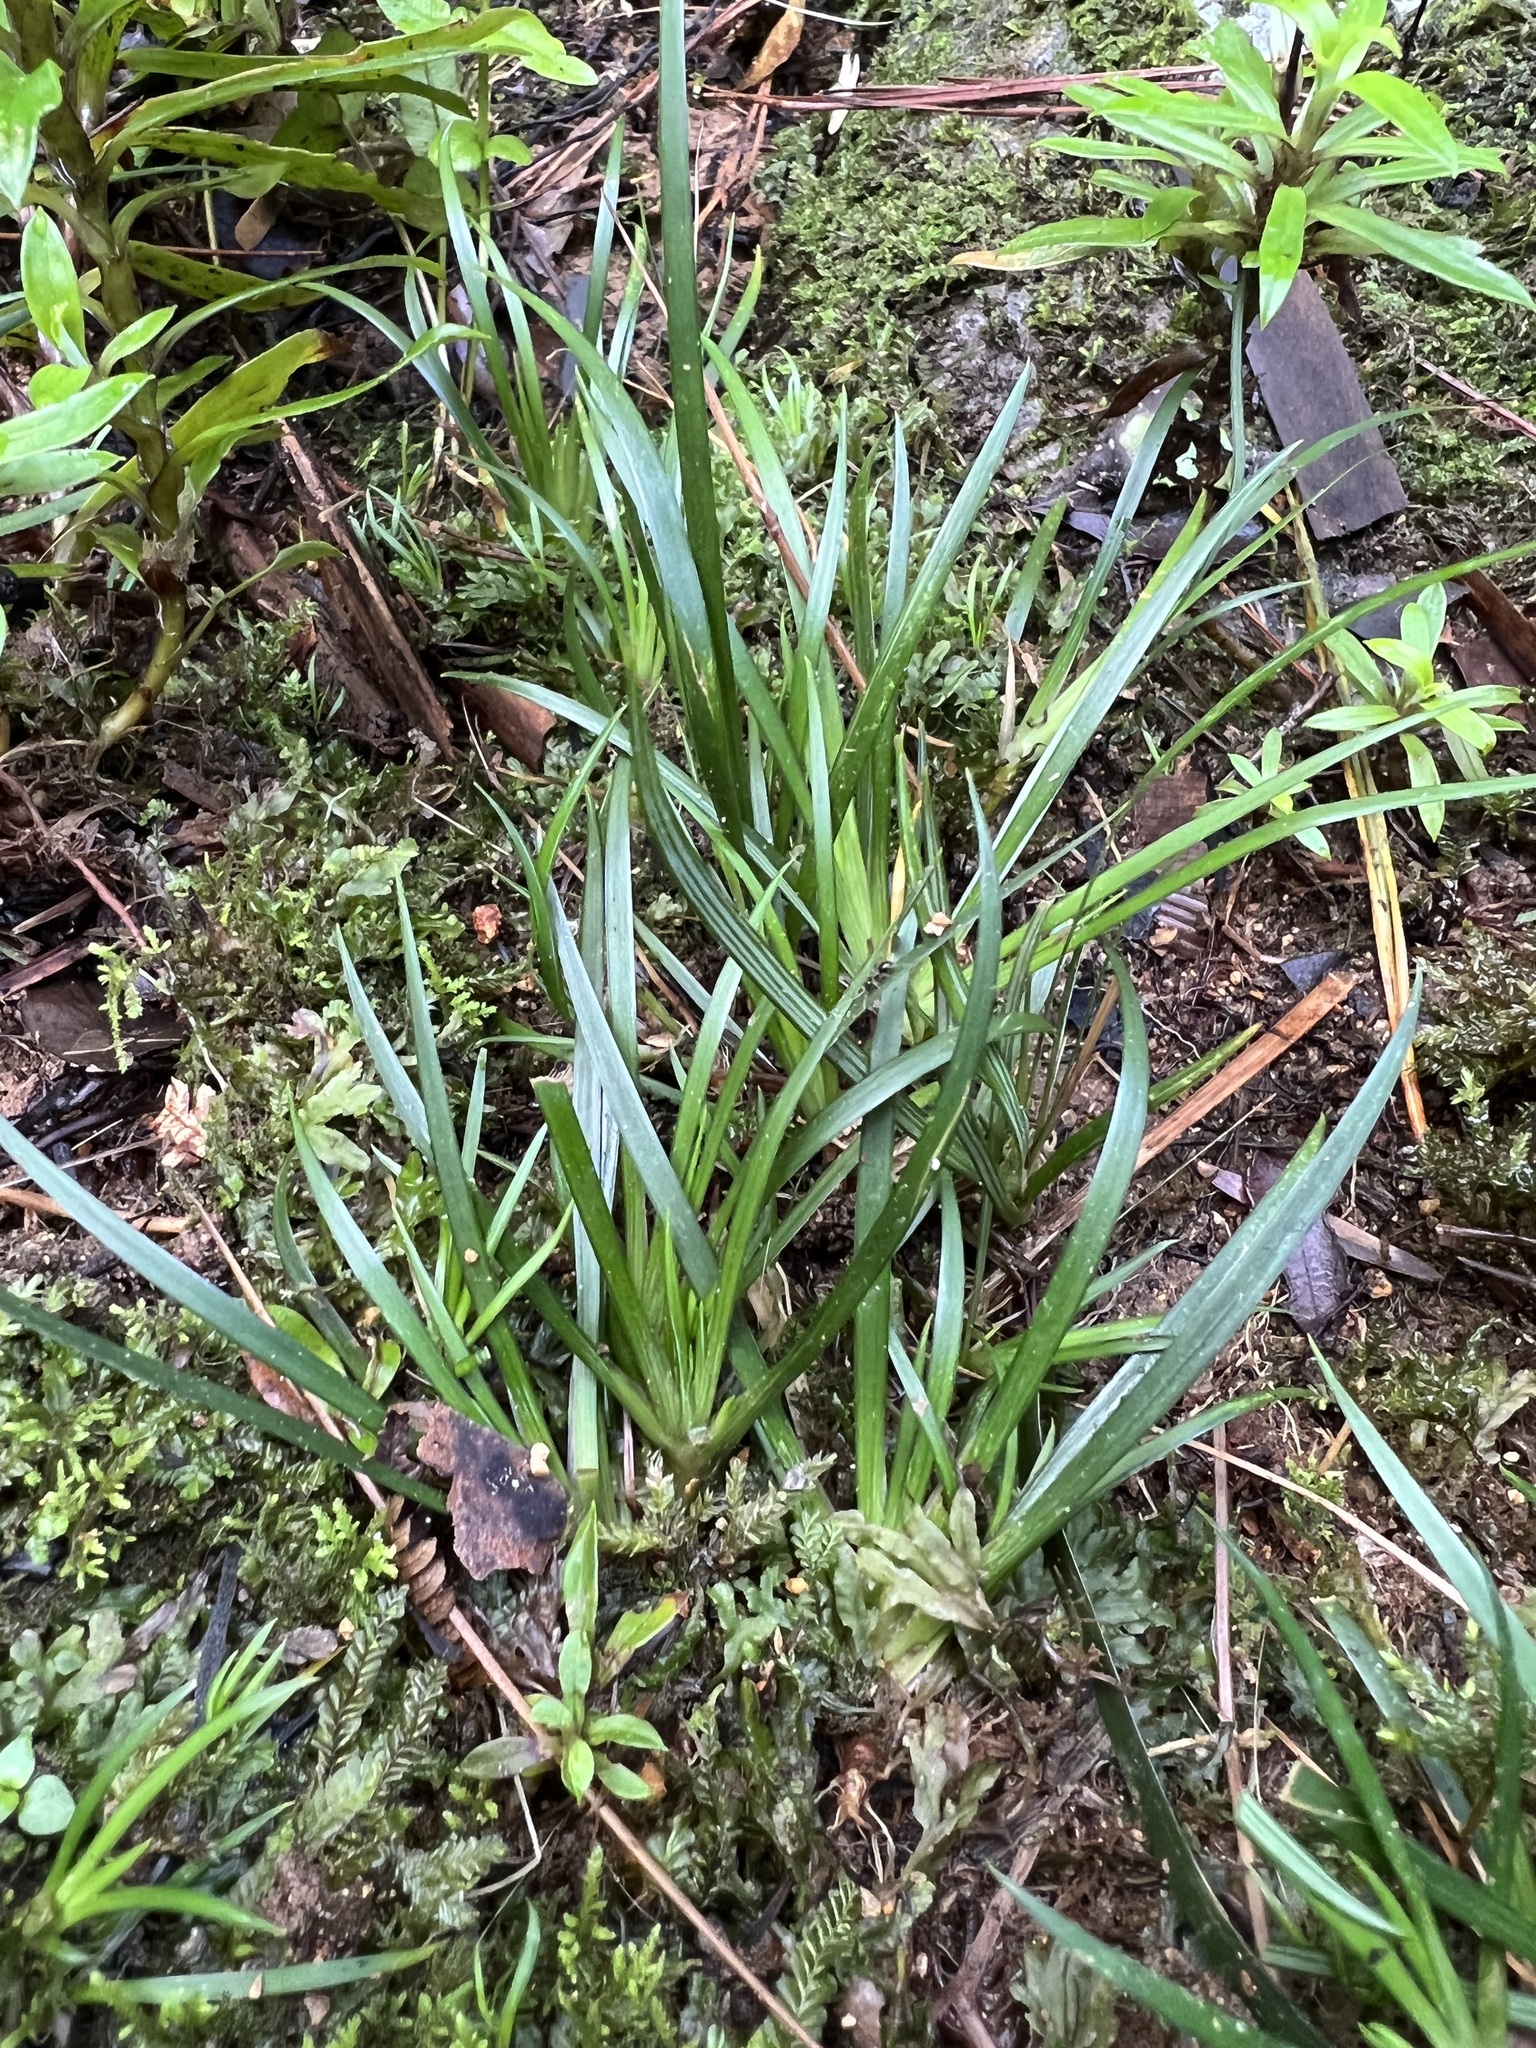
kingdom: Plantae
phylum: Tracheophyta
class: Liliopsida
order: Asparagales
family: Iridaceae
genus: Libertia
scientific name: Libertia micrantha
